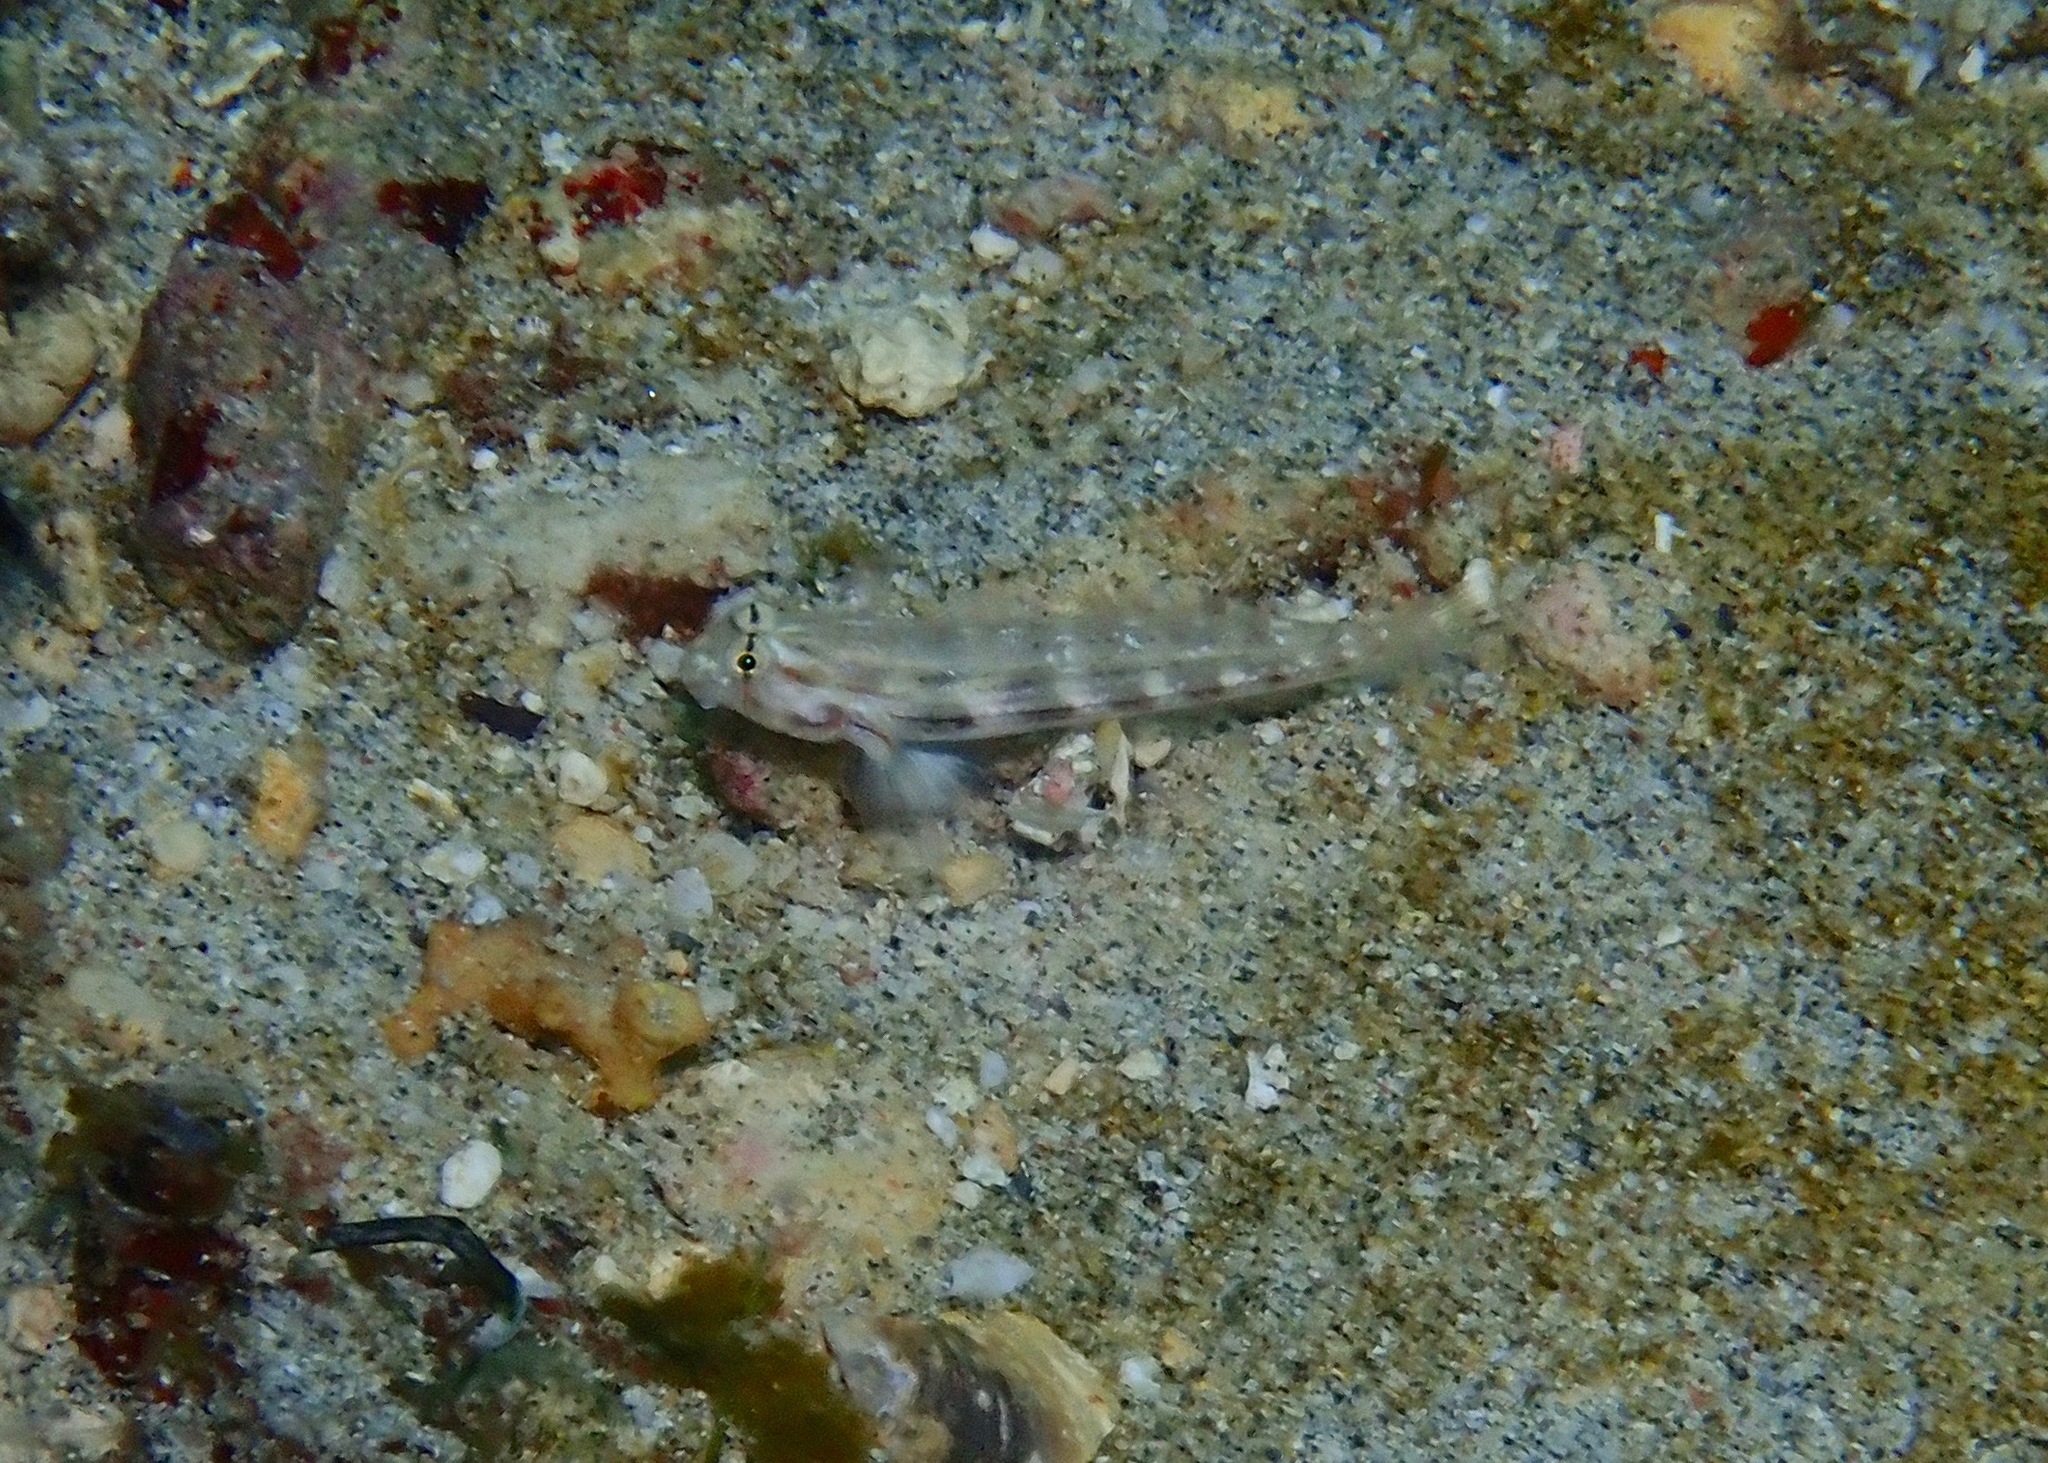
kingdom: Animalia
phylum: Chordata
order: Perciformes
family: Gobiidae
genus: Gnatholepis
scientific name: Gnatholepis cauerensis
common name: Bridled goby
